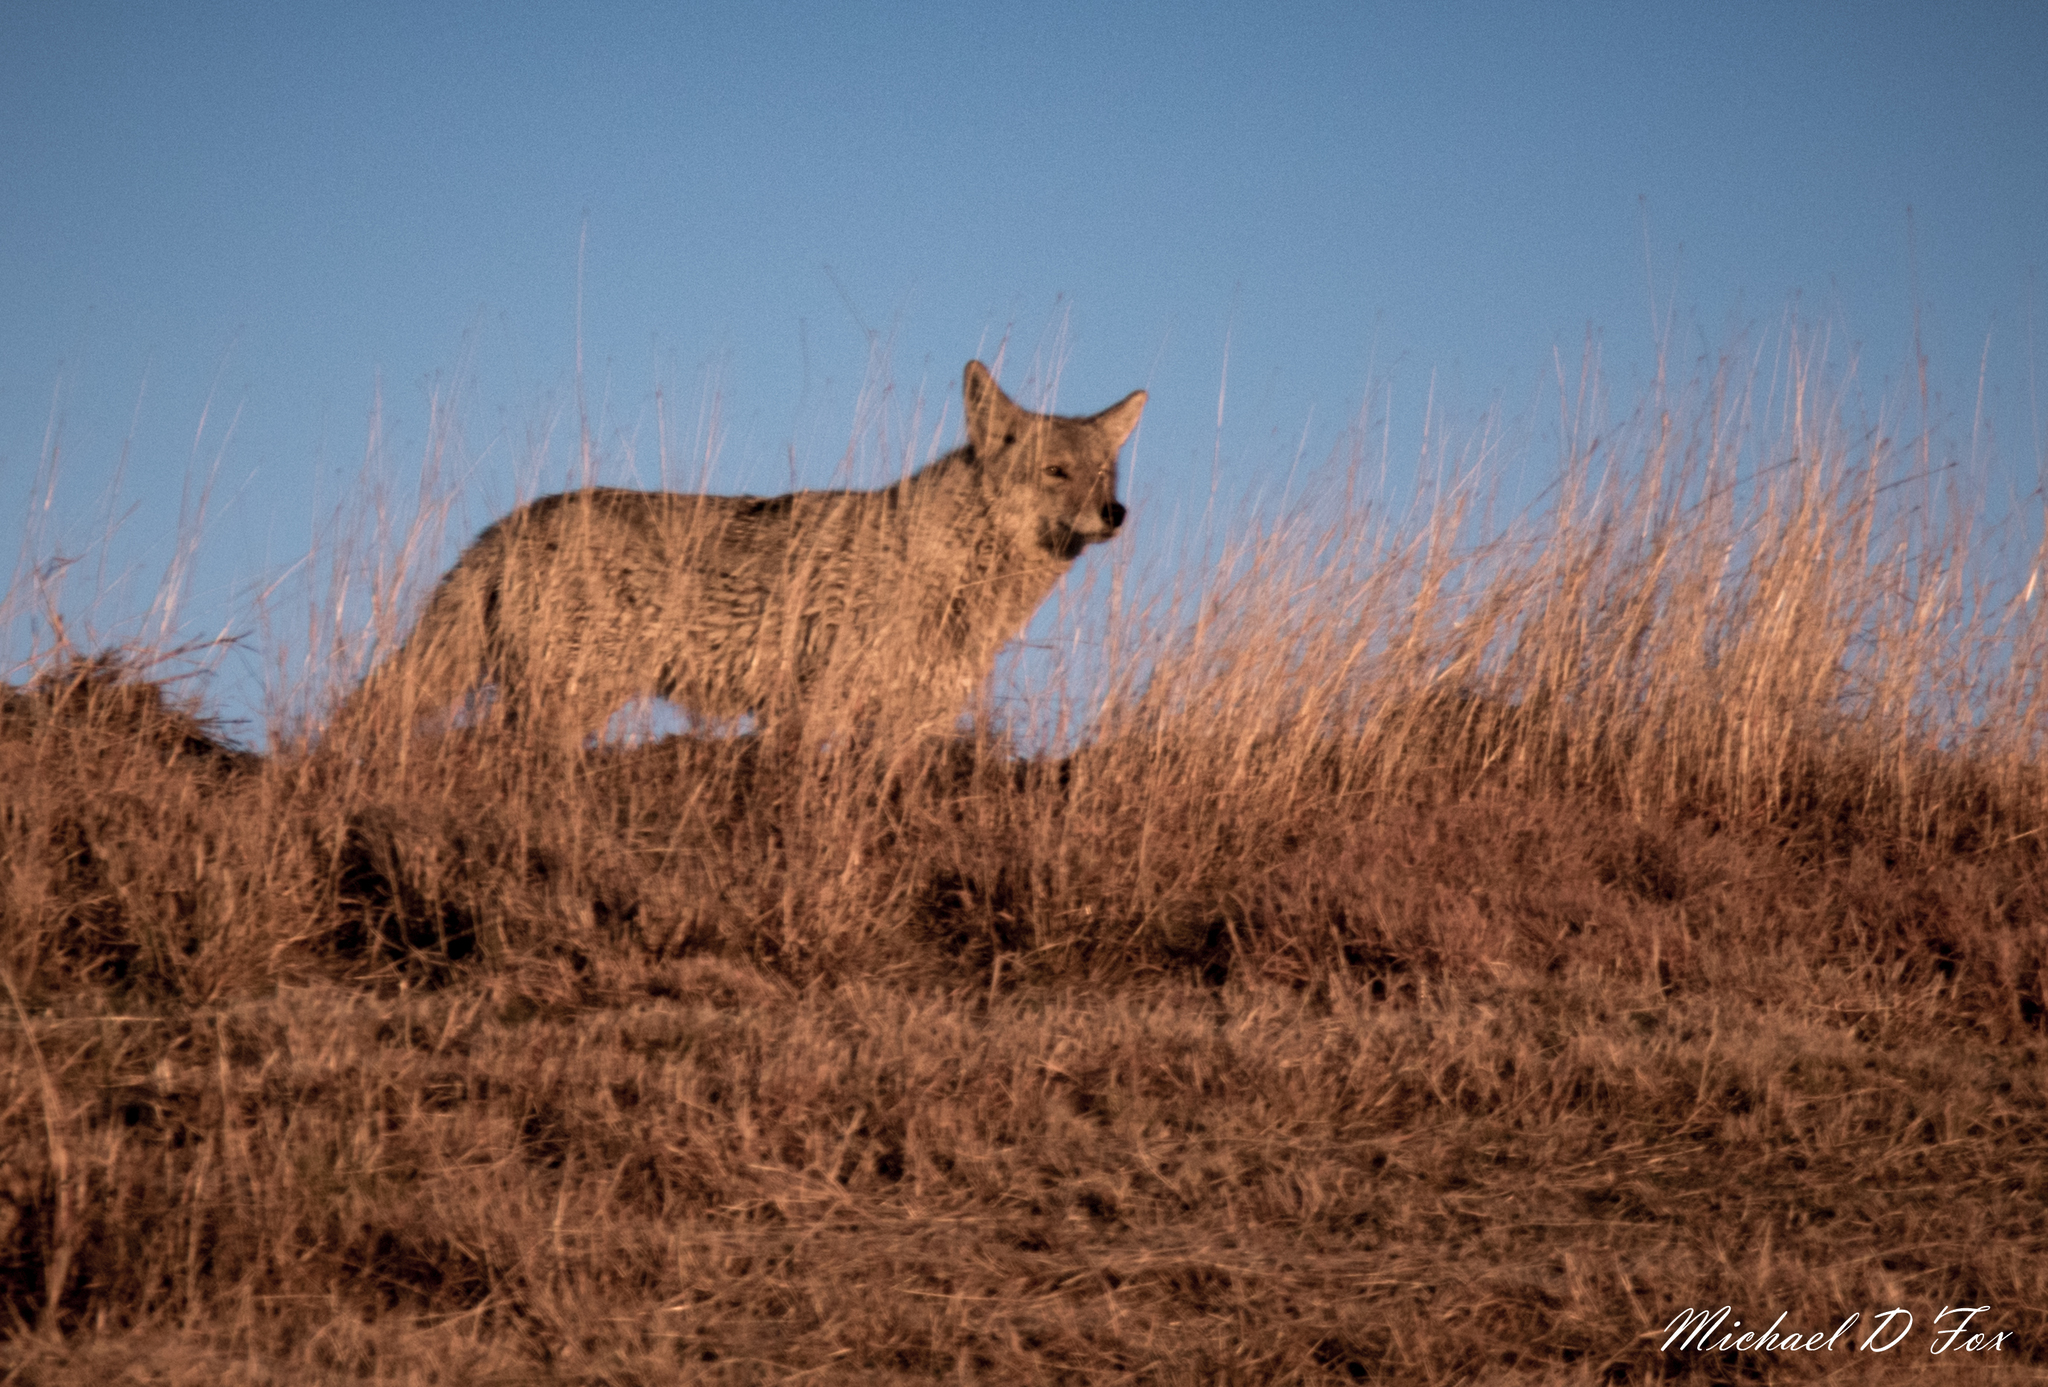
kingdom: Animalia
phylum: Chordata
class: Mammalia
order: Carnivora
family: Canidae
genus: Canis
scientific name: Canis latrans
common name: Coyote
